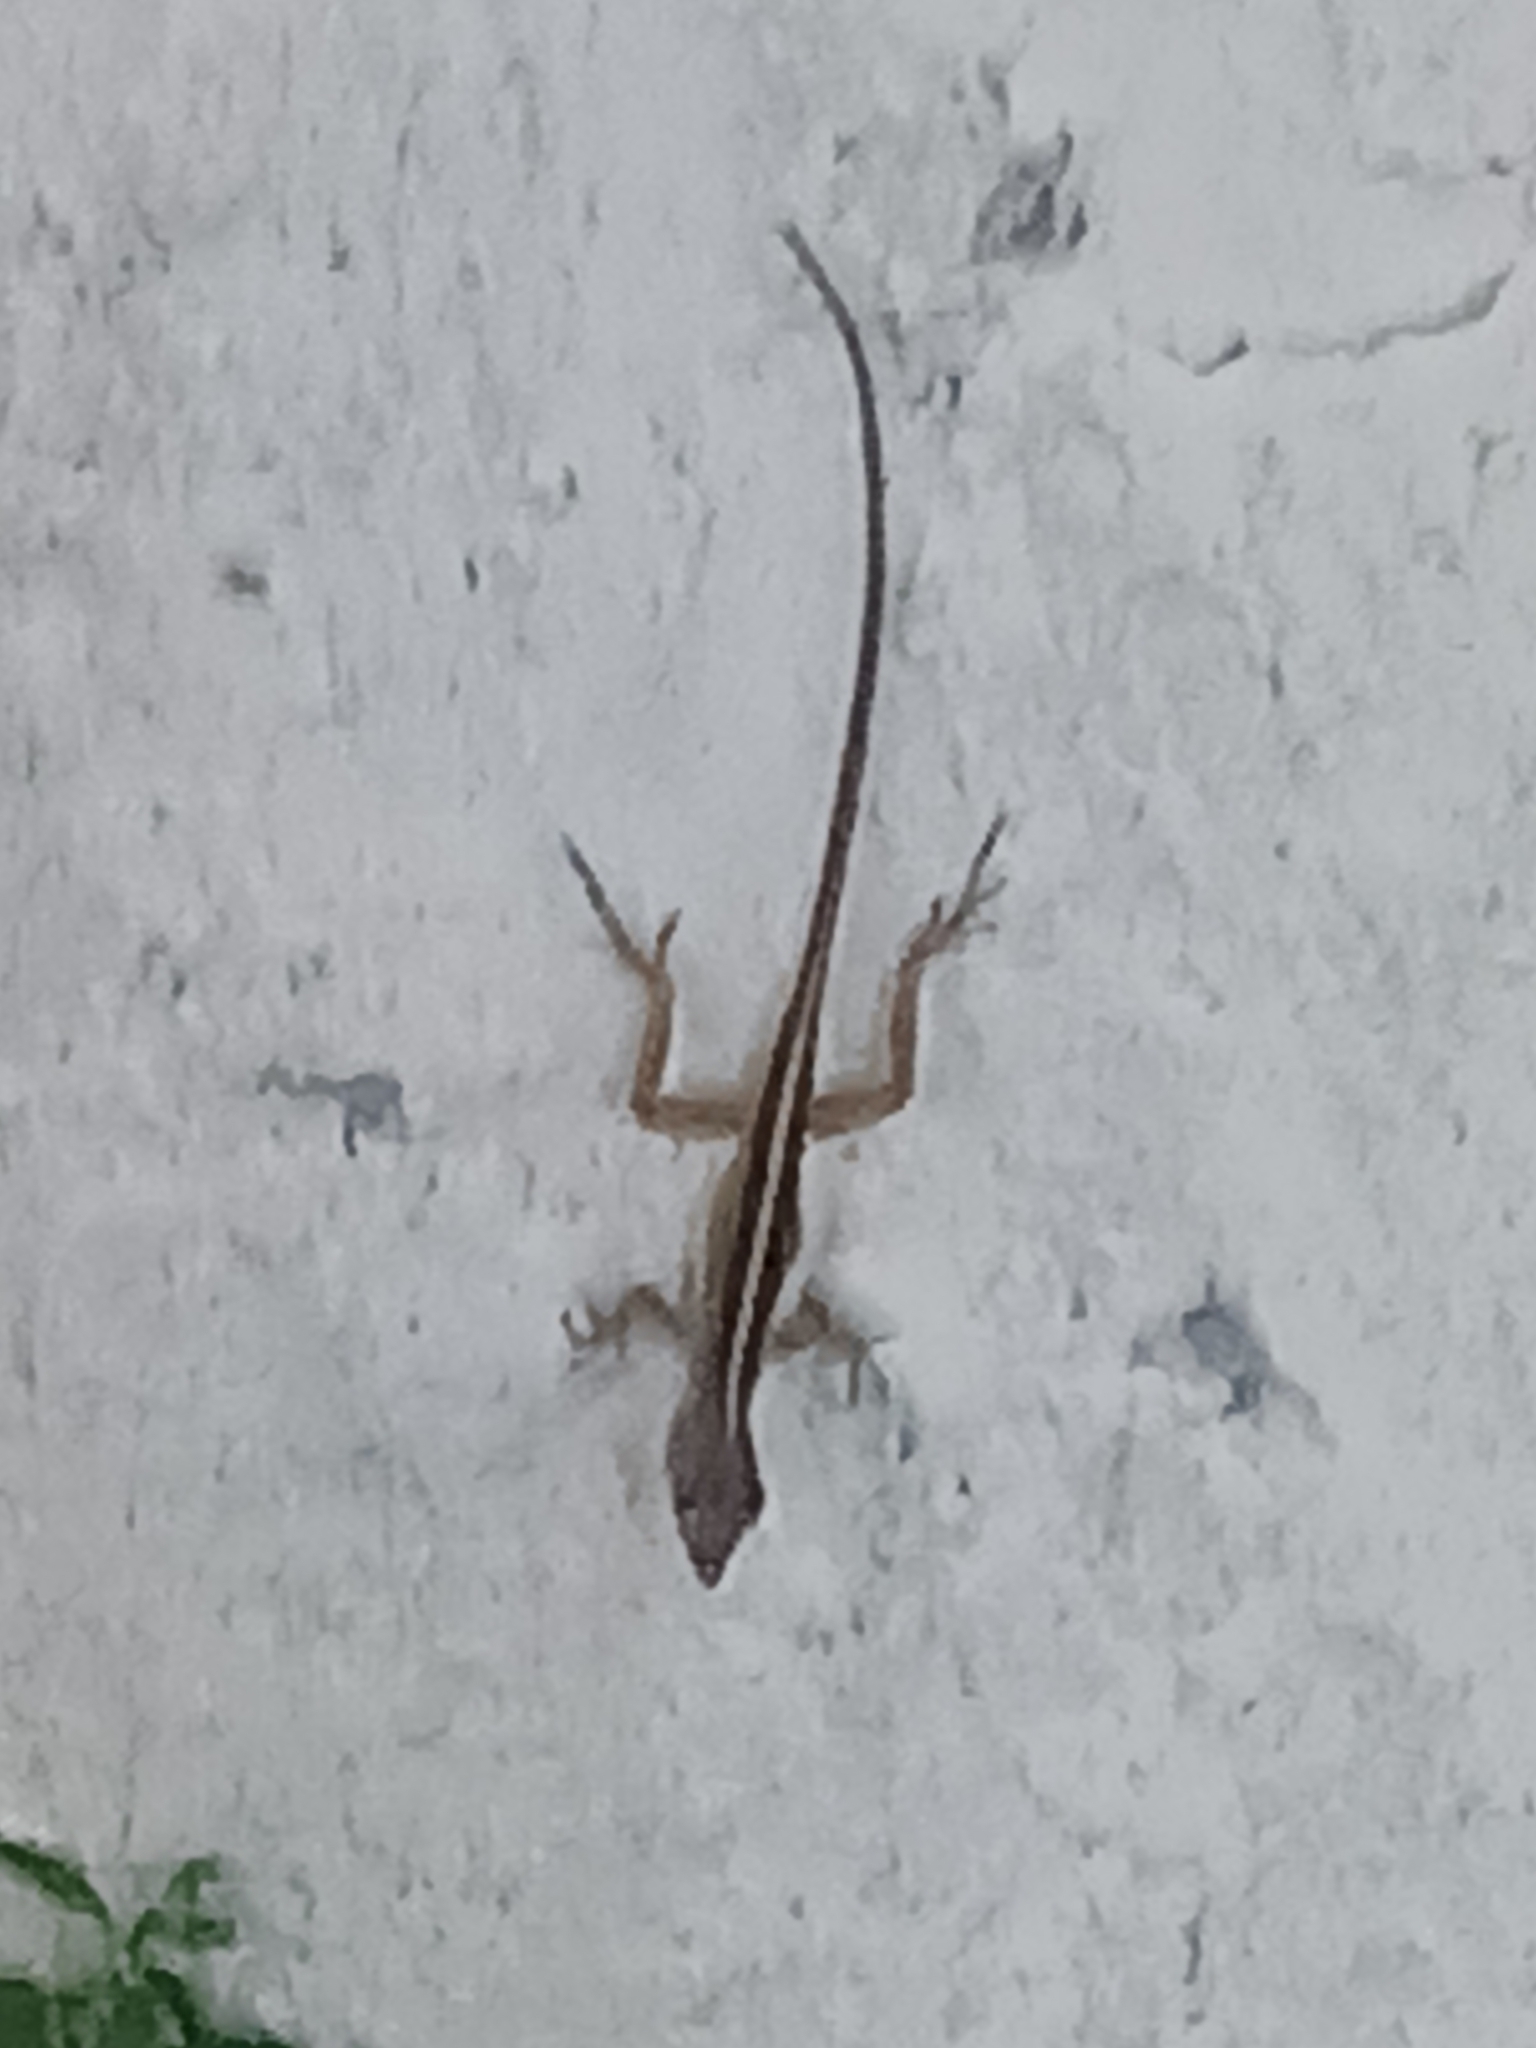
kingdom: Animalia
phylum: Chordata
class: Squamata
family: Dactyloidae
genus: Anolis
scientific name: Anolis sagrei
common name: Brown anole
